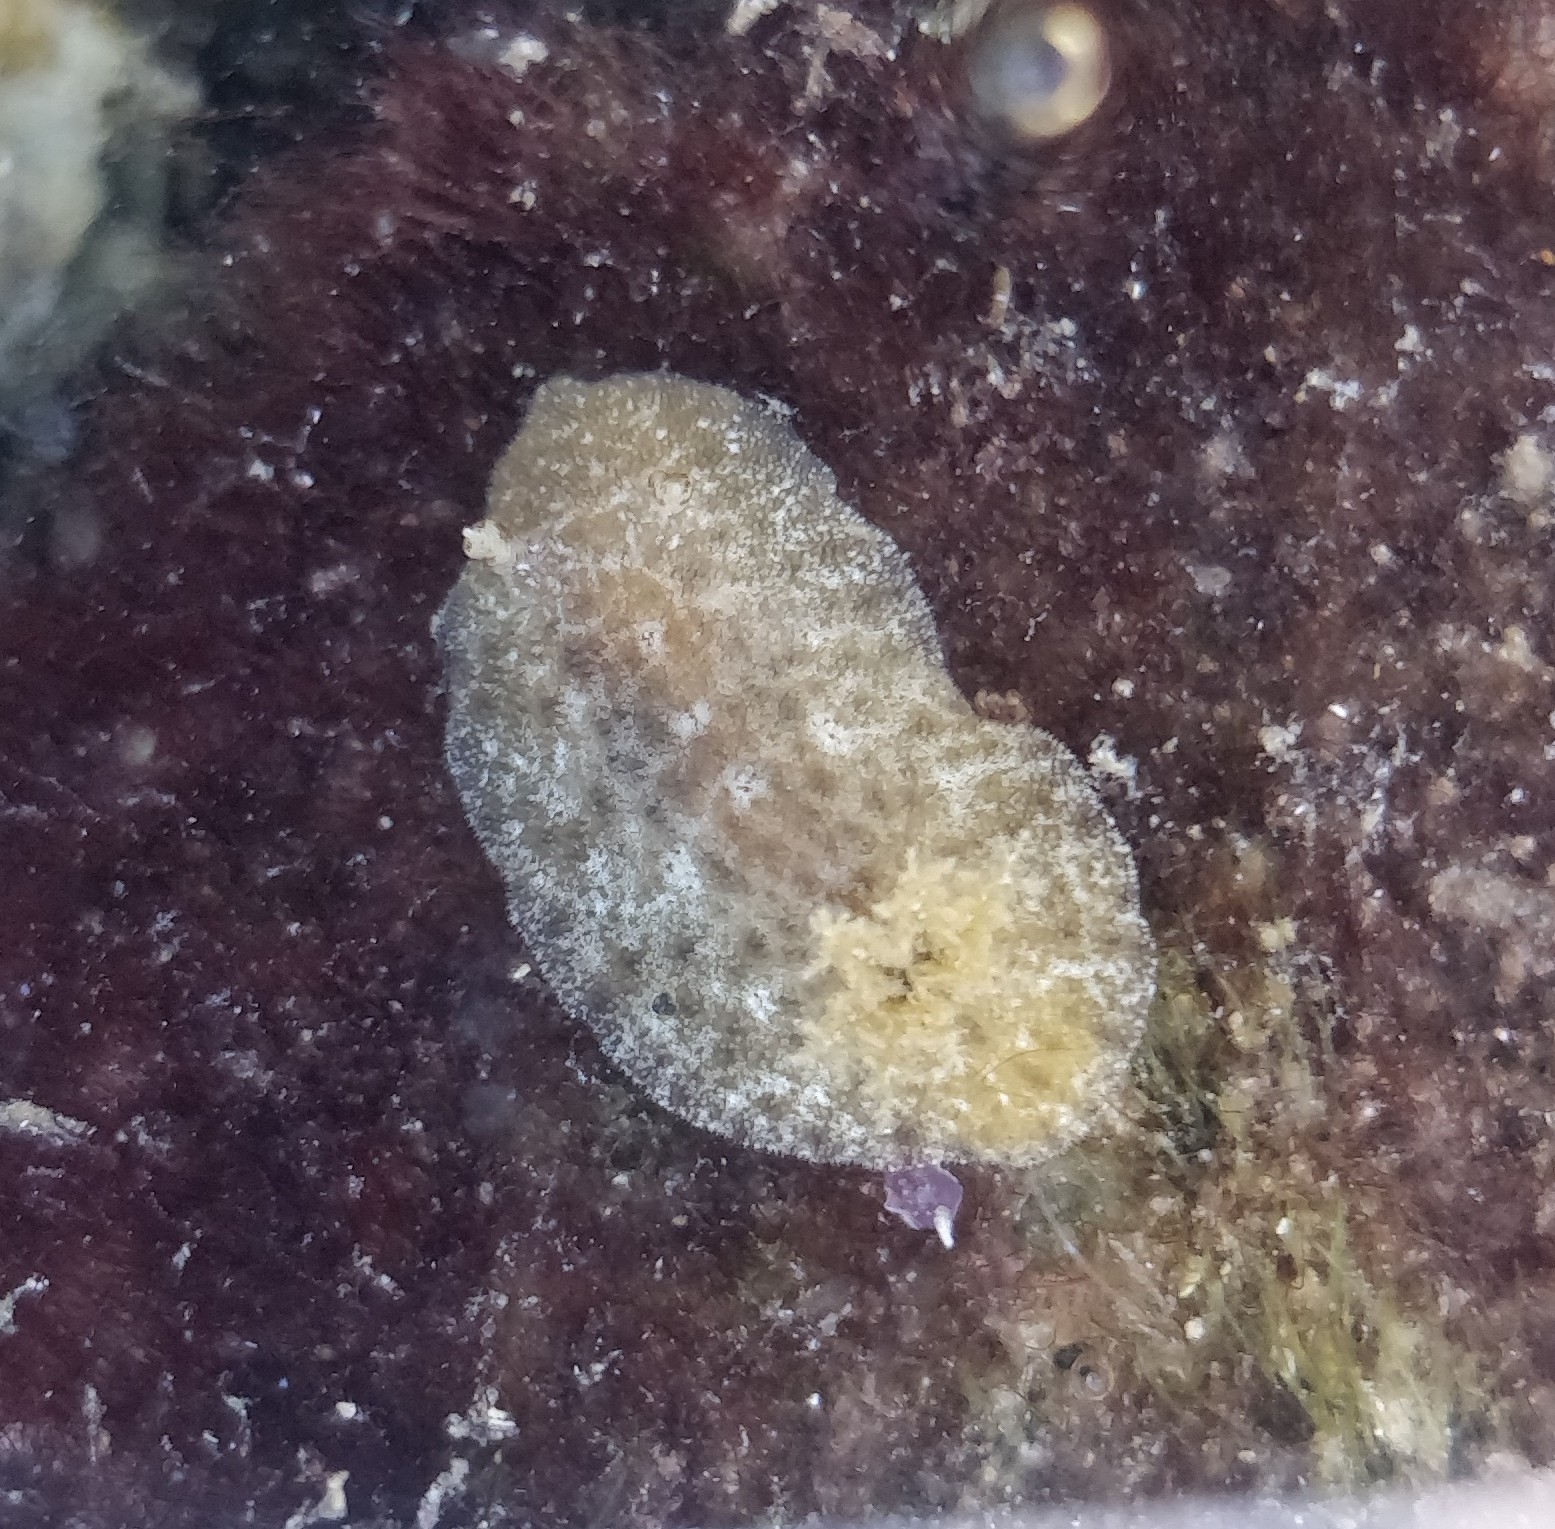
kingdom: Animalia
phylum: Mollusca
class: Gastropoda
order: Nudibranchia
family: Discodorididae
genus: Peltodoris
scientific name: Peltodoris punctifera
